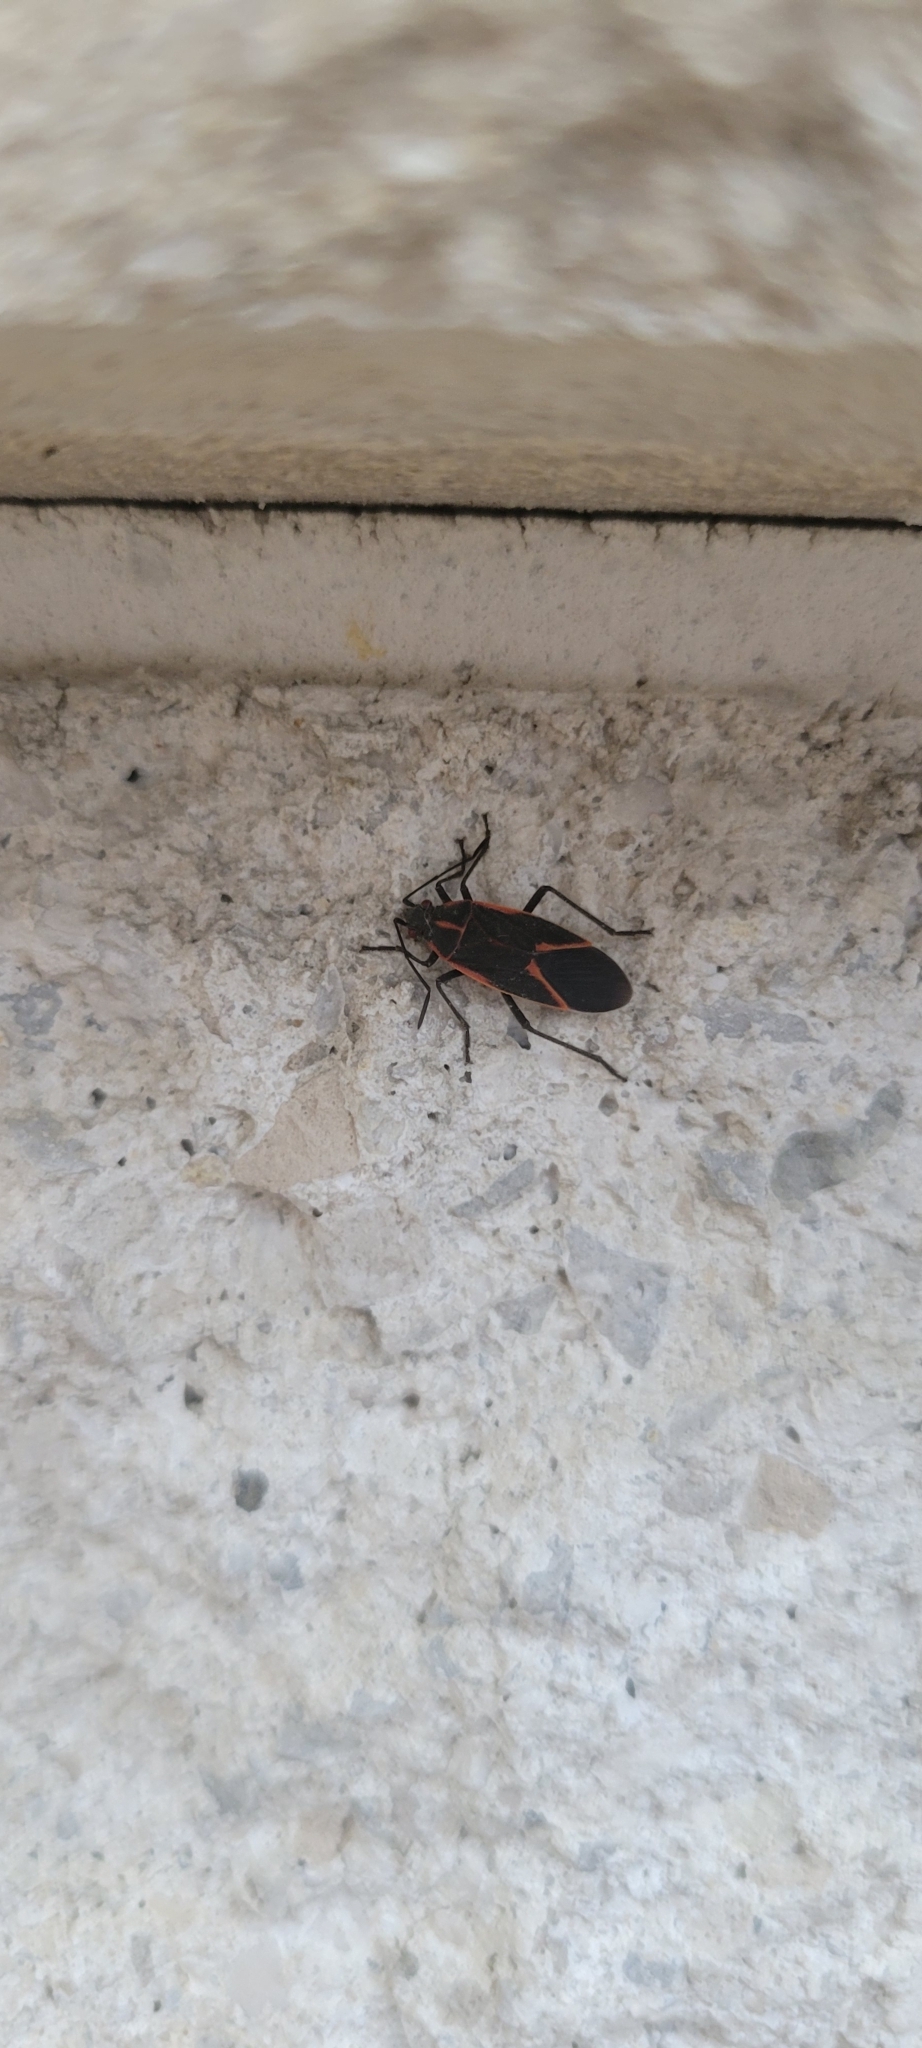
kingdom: Animalia
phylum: Arthropoda
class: Insecta
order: Hemiptera
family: Rhopalidae
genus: Boisea
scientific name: Boisea trivittata
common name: Boxelder bug
